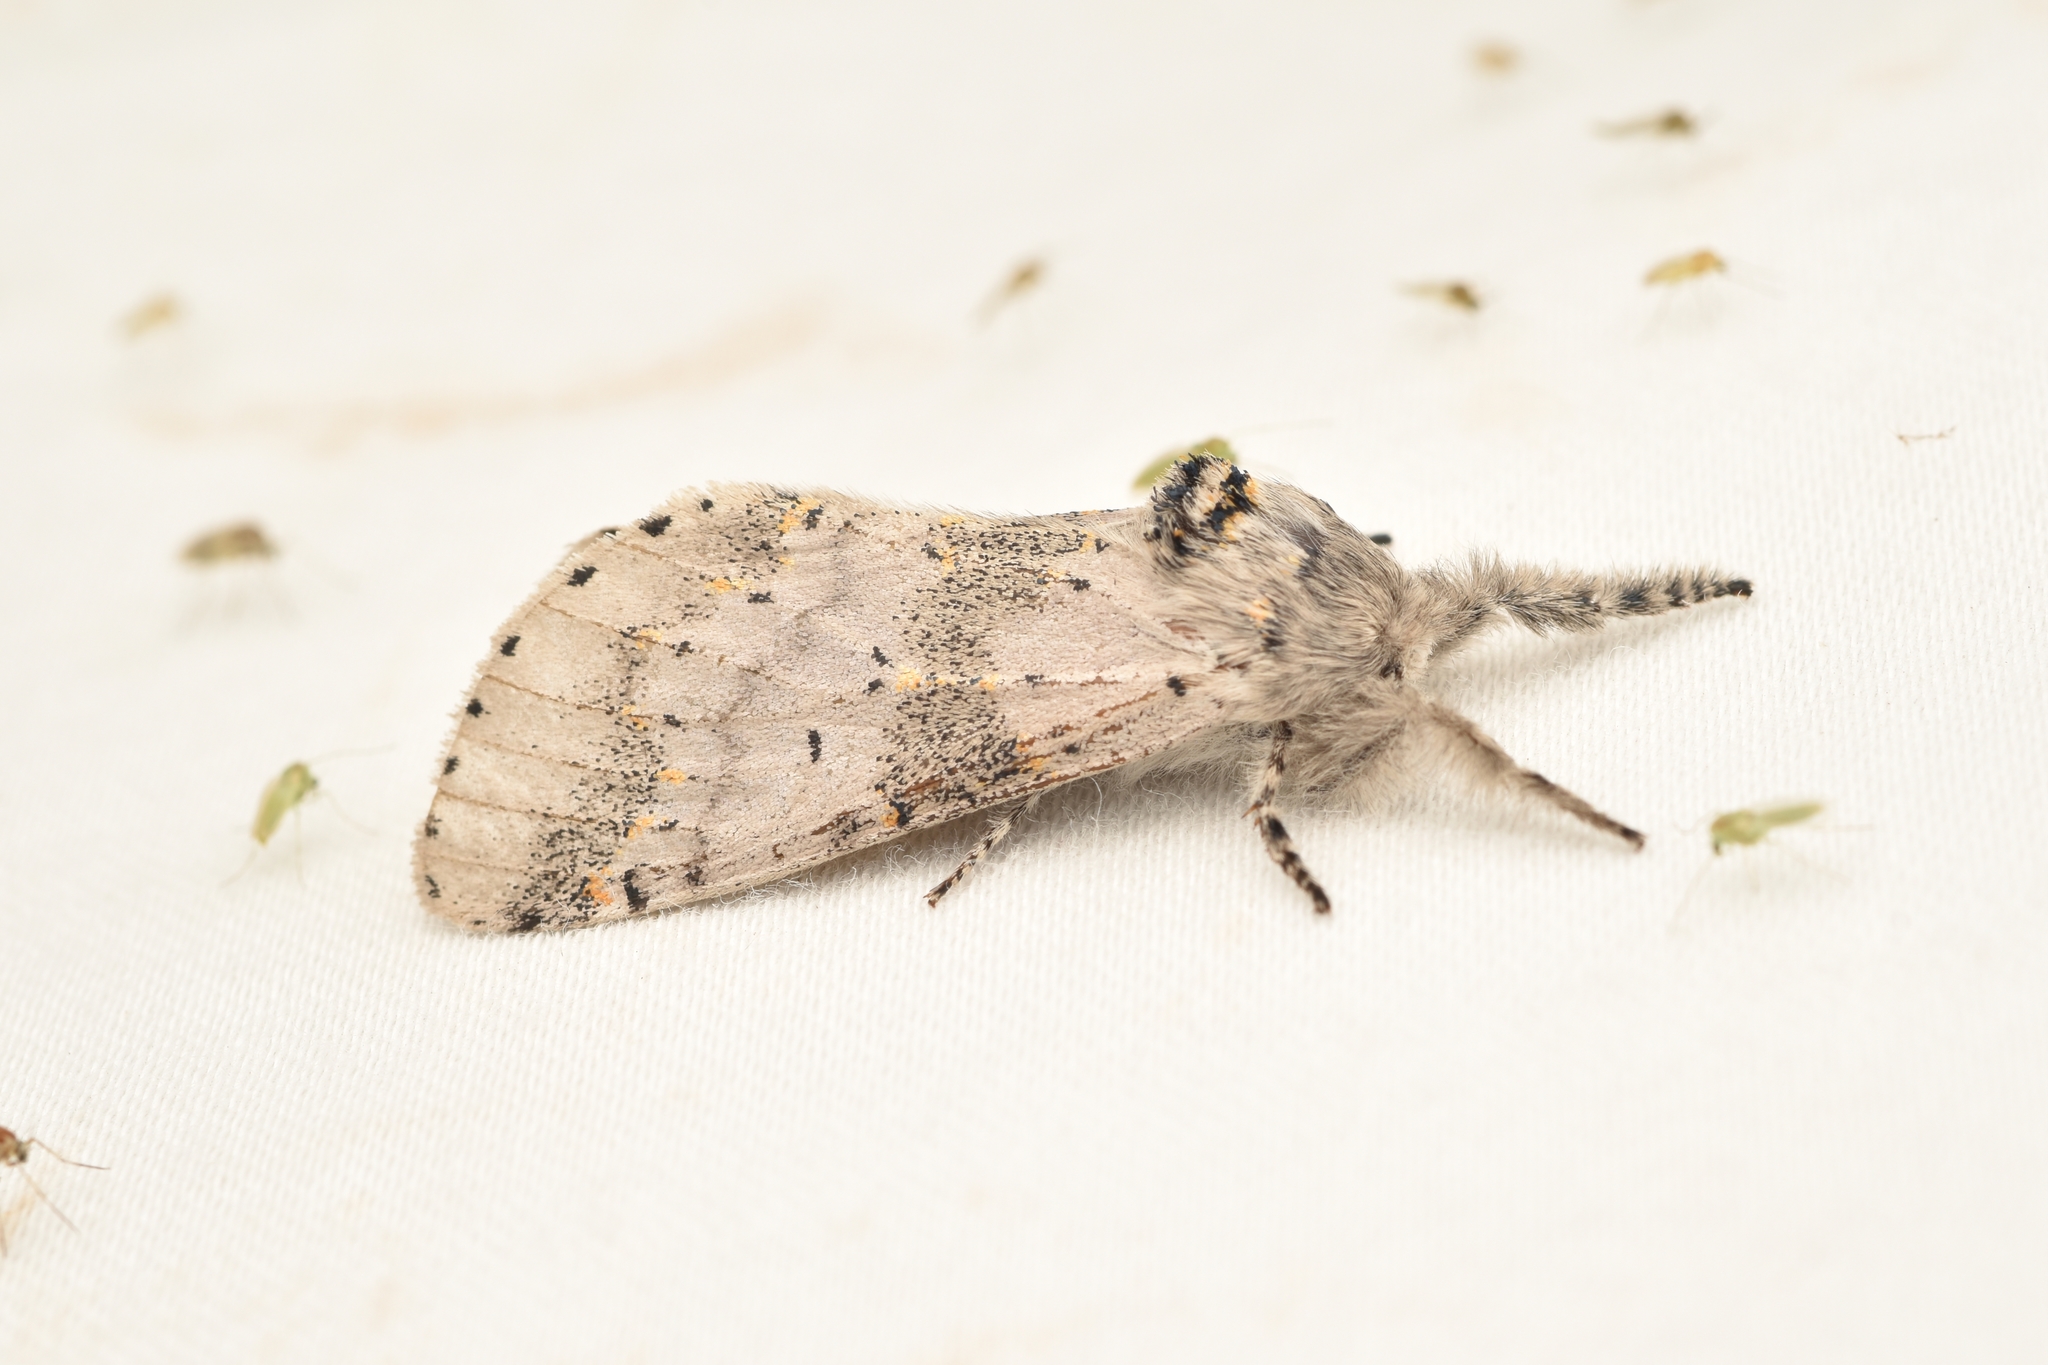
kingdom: Animalia
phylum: Arthropoda
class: Insecta
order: Lepidoptera
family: Notodontidae
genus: Furcula
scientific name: Furcula cinerea
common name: Gray furcula
